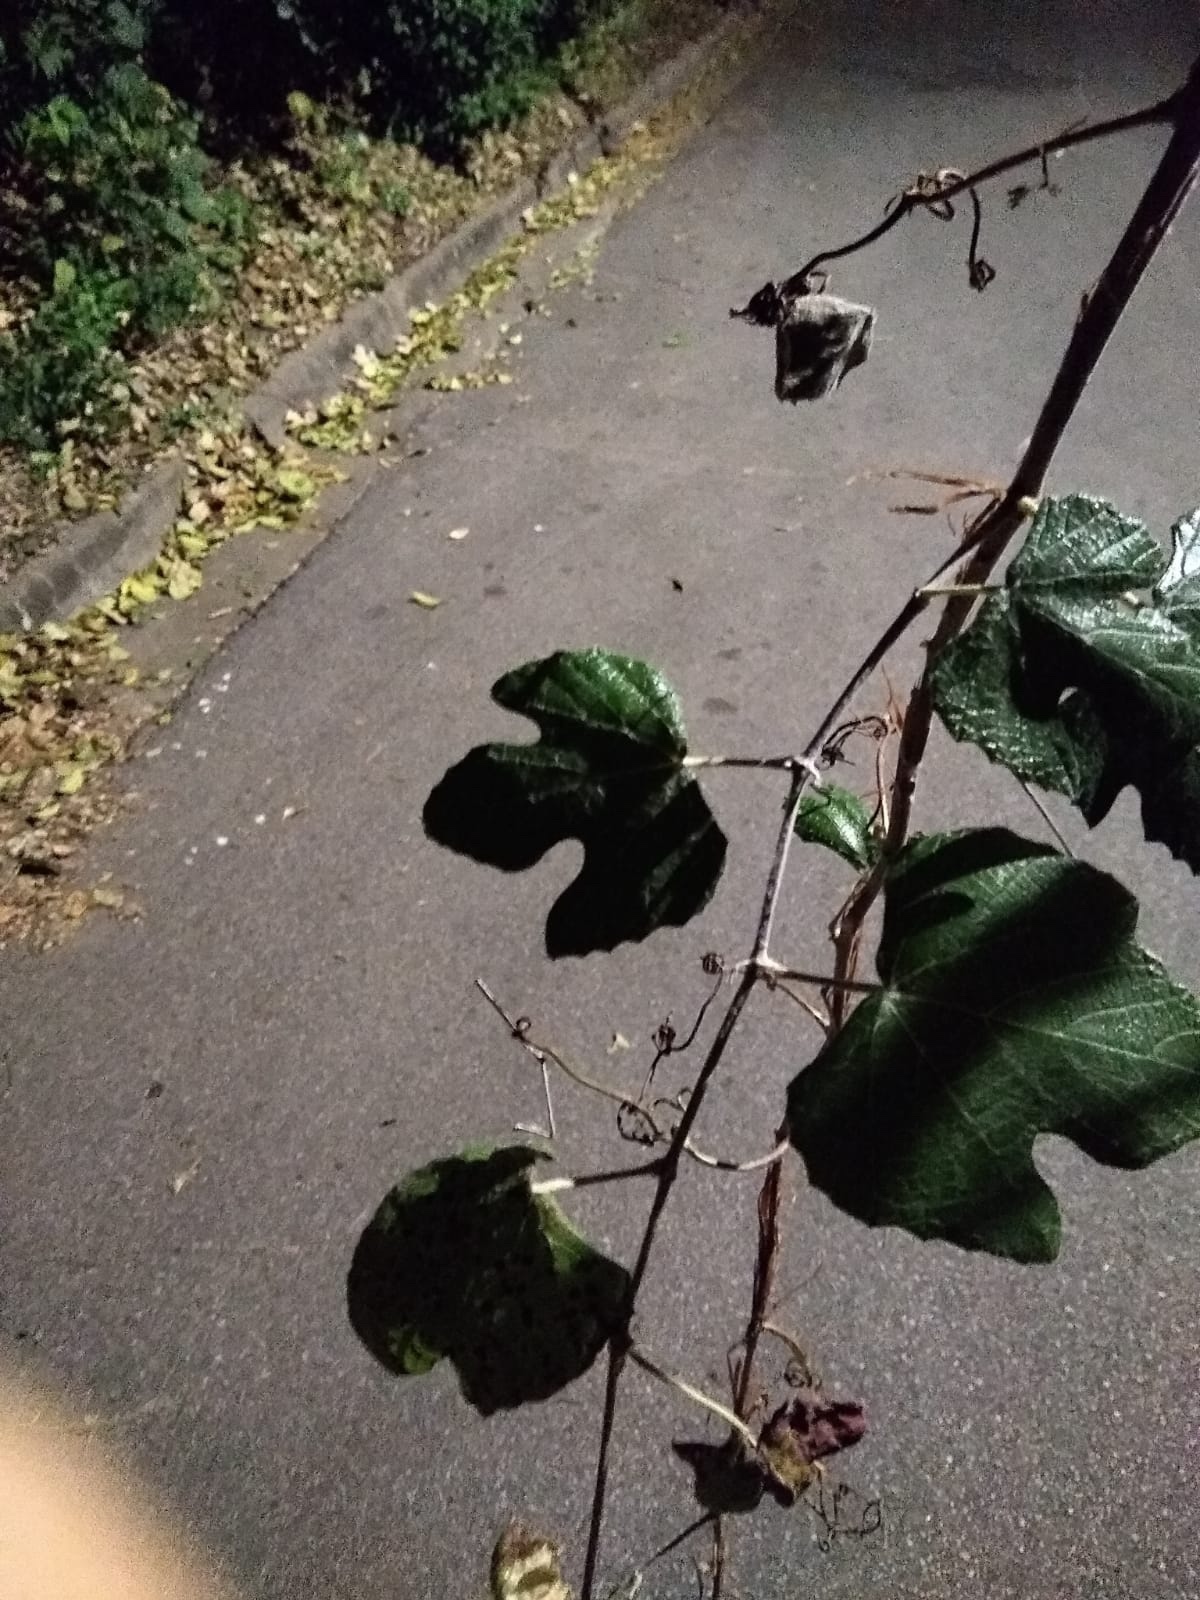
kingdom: Plantae
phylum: Tracheophyta
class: Magnoliopsida
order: Vitales
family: Vitaceae
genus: Vitis
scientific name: Vitis mustangensis
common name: Mustang grape
